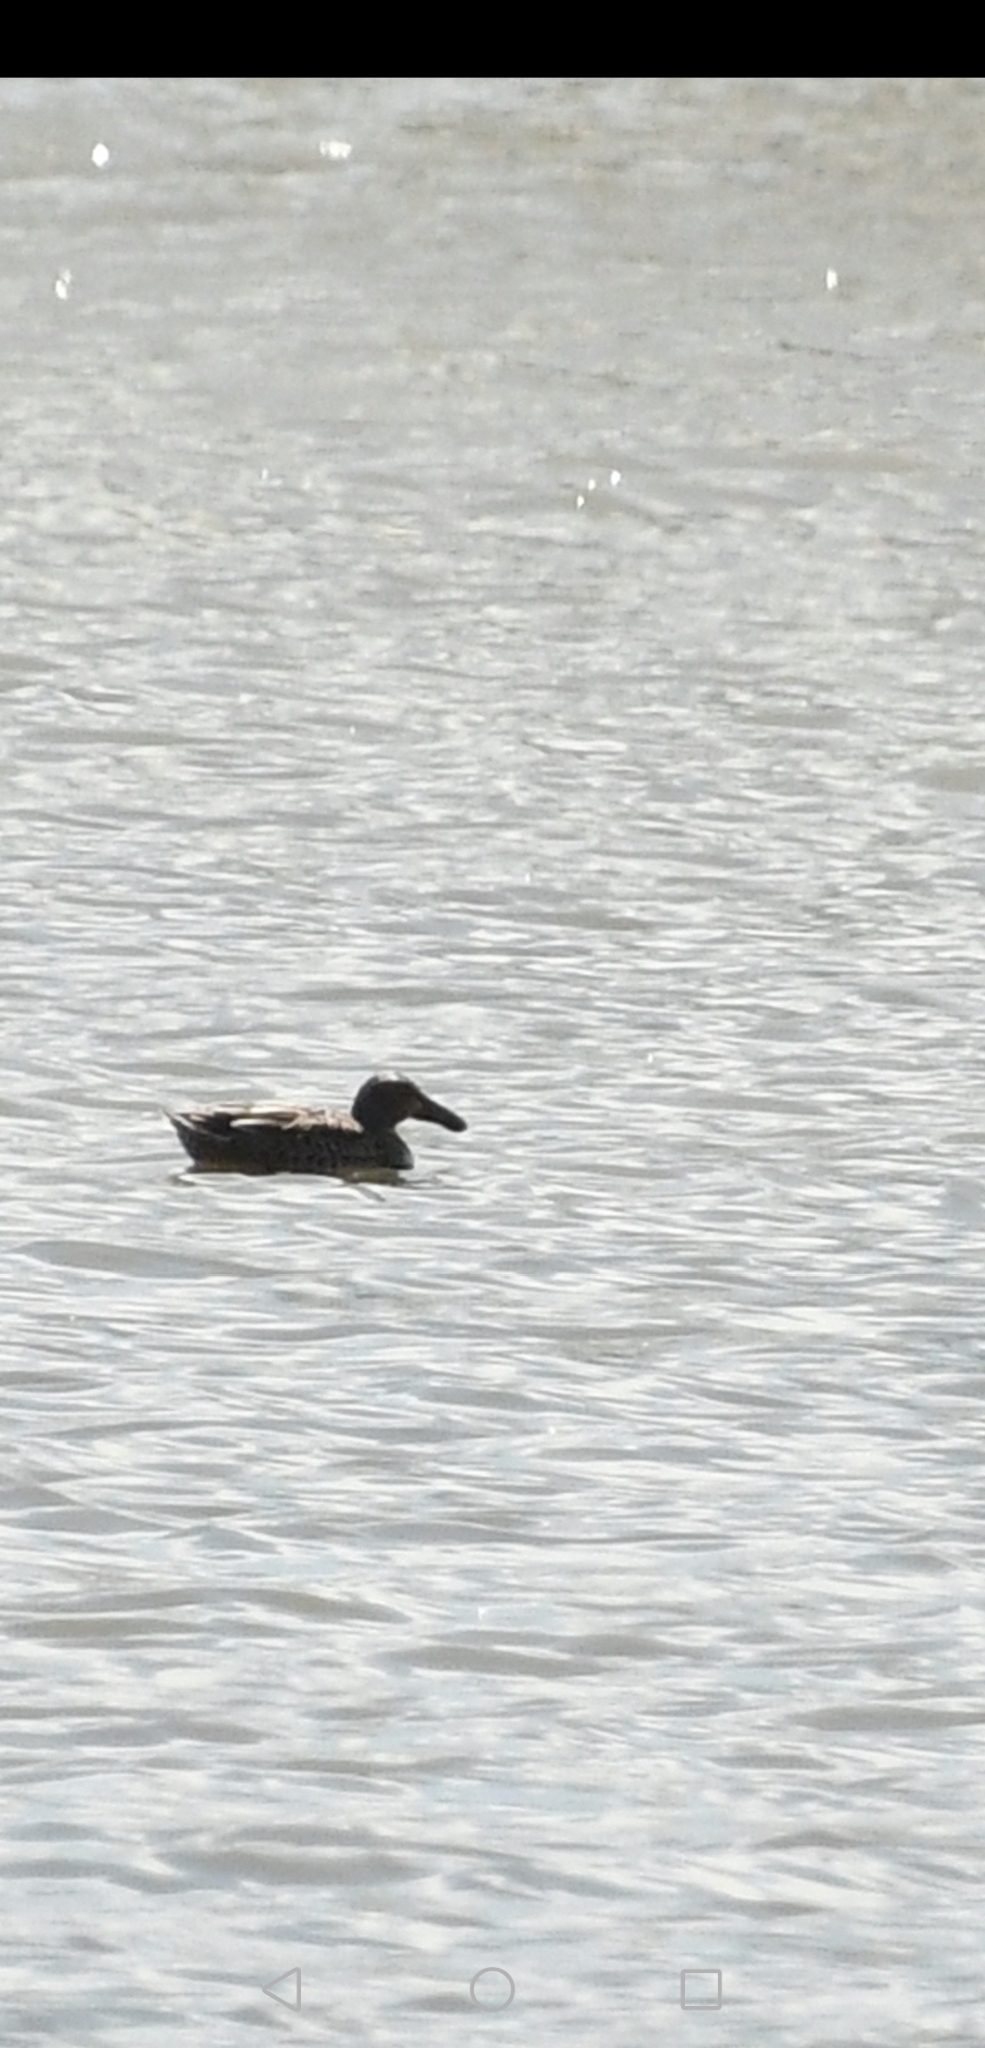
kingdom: Animalia
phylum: Chordata
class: Aves
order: Anseriformes
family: Anatidae
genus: Spatula
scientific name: Spatula clypeata
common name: Northern shoveler
